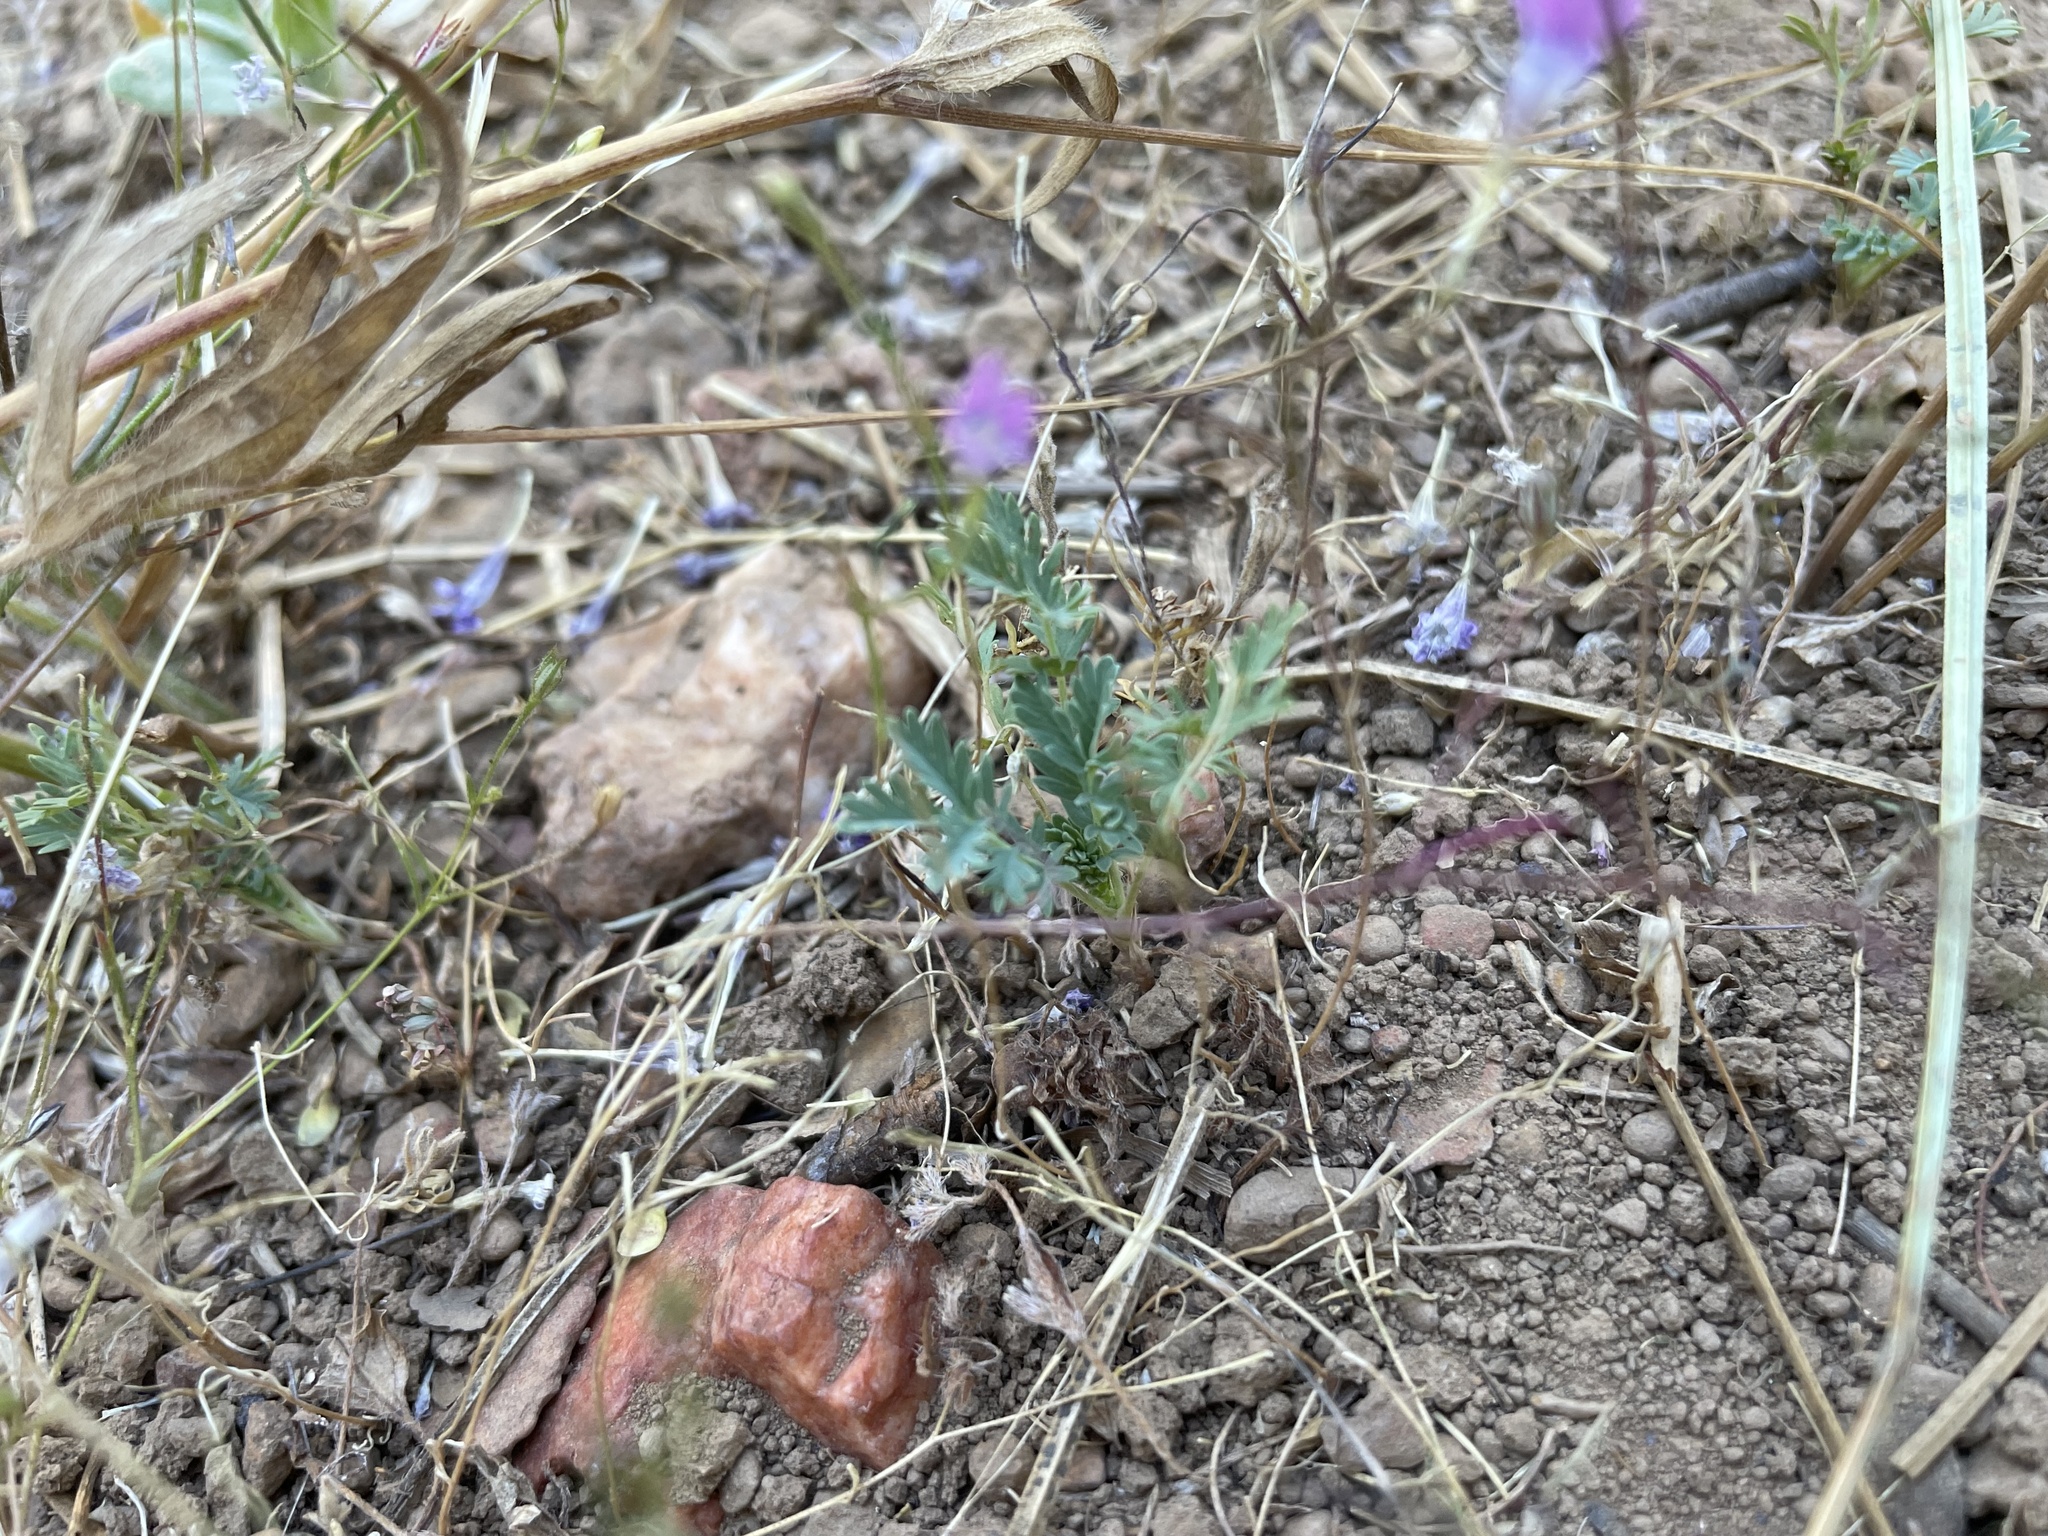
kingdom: Plantae
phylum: Tracheophyta
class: Magnoliopsida
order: Ericales
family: Polemoniaceae
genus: Navarretia
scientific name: Navarretia leptalea
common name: Bridges' pincushionplant
